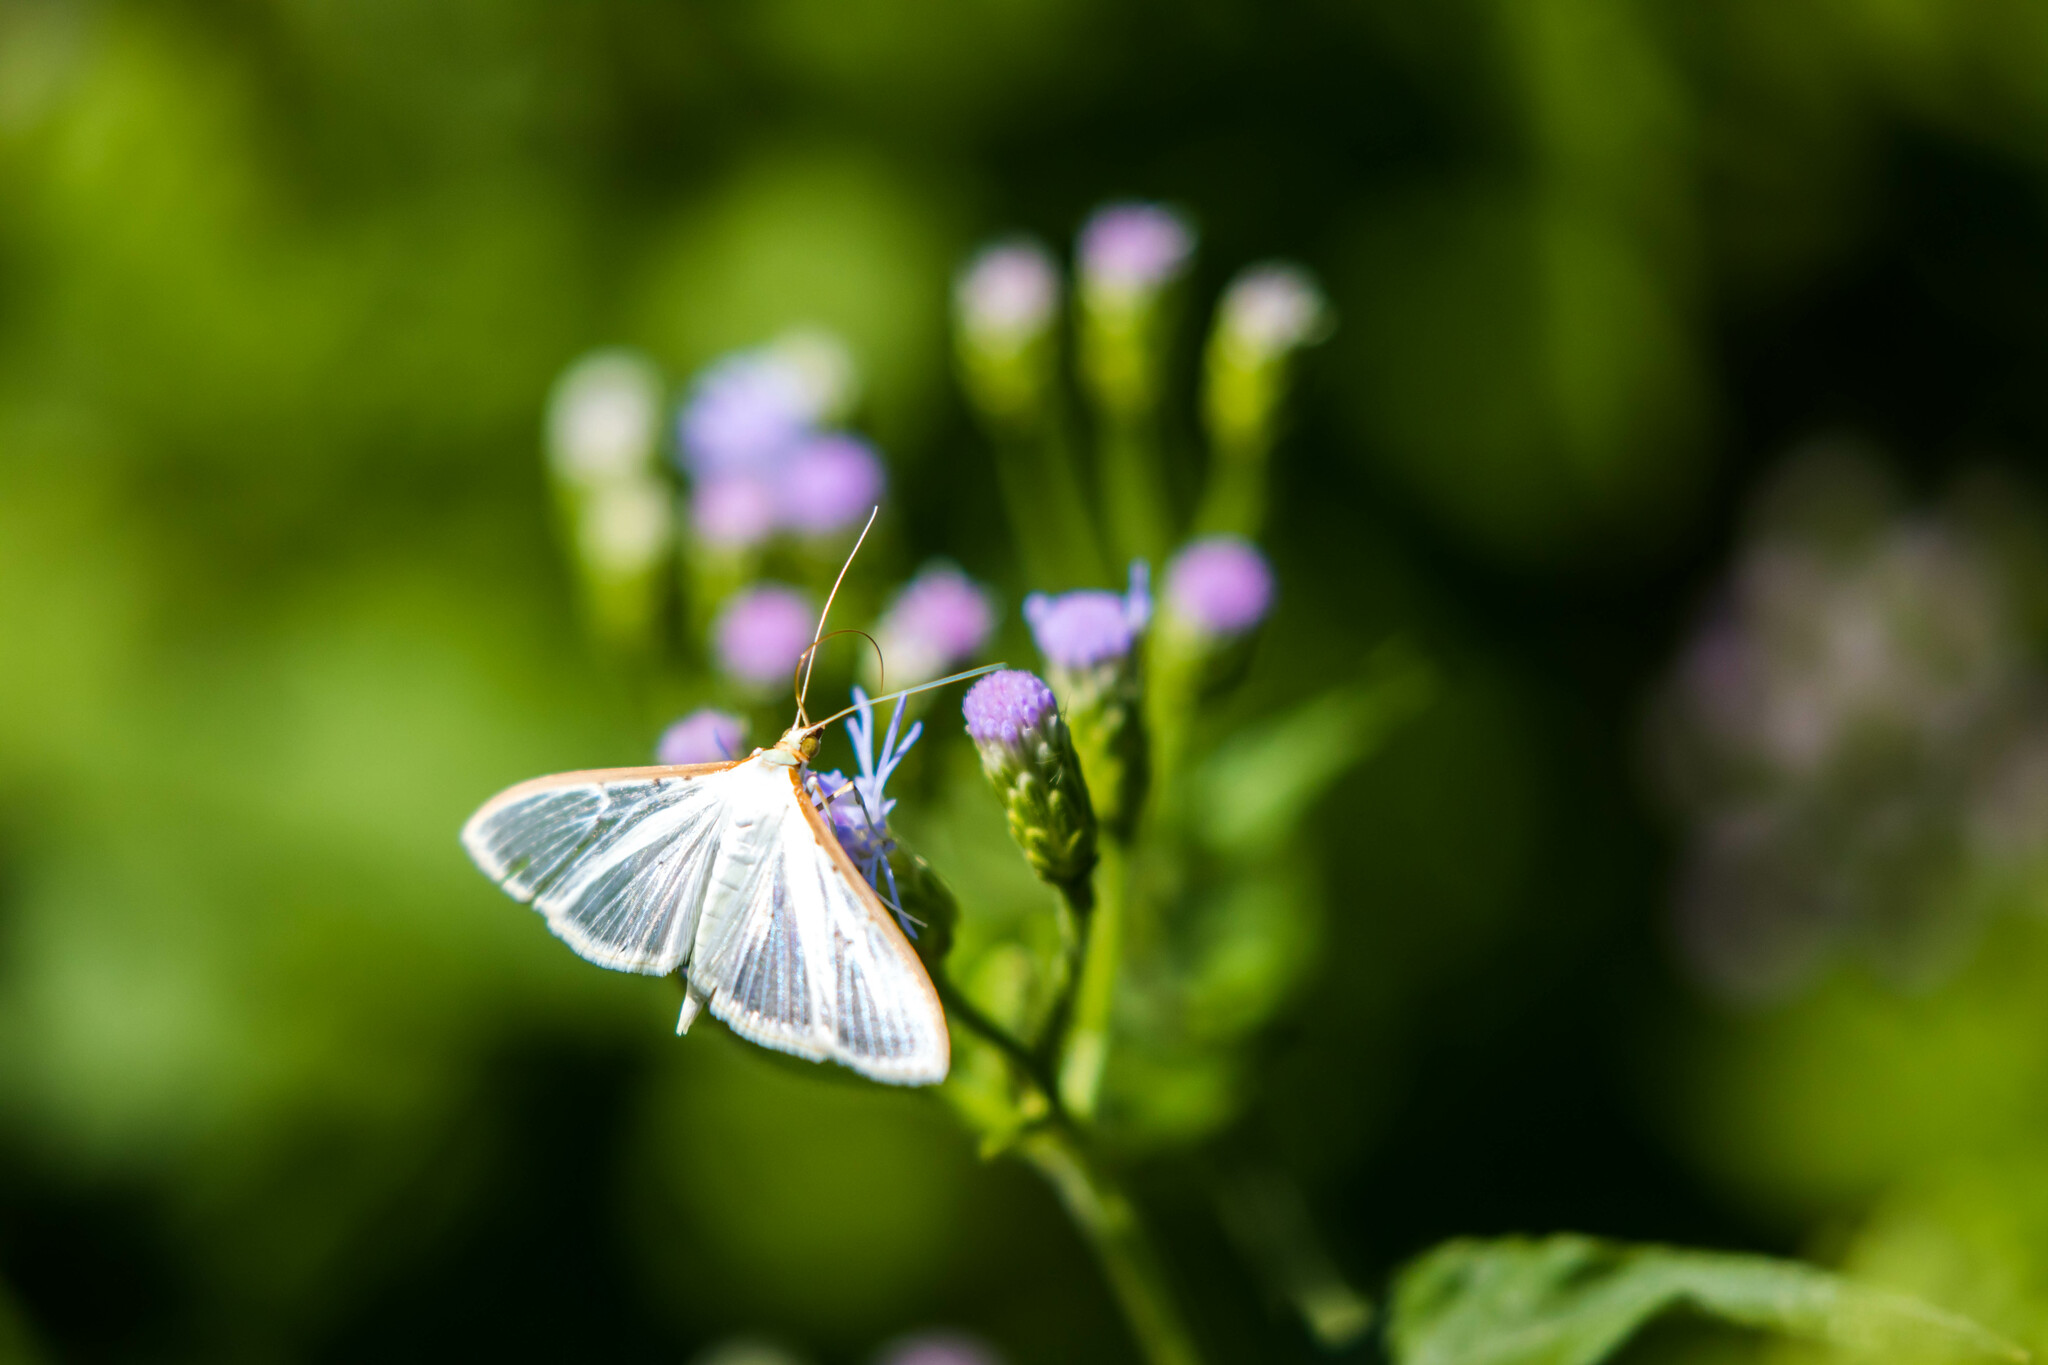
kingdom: Animalia
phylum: Arthropoda
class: Insecta
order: Lepidoptera
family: Crambidae
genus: Palpita
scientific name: Palpita quadristigmalis
